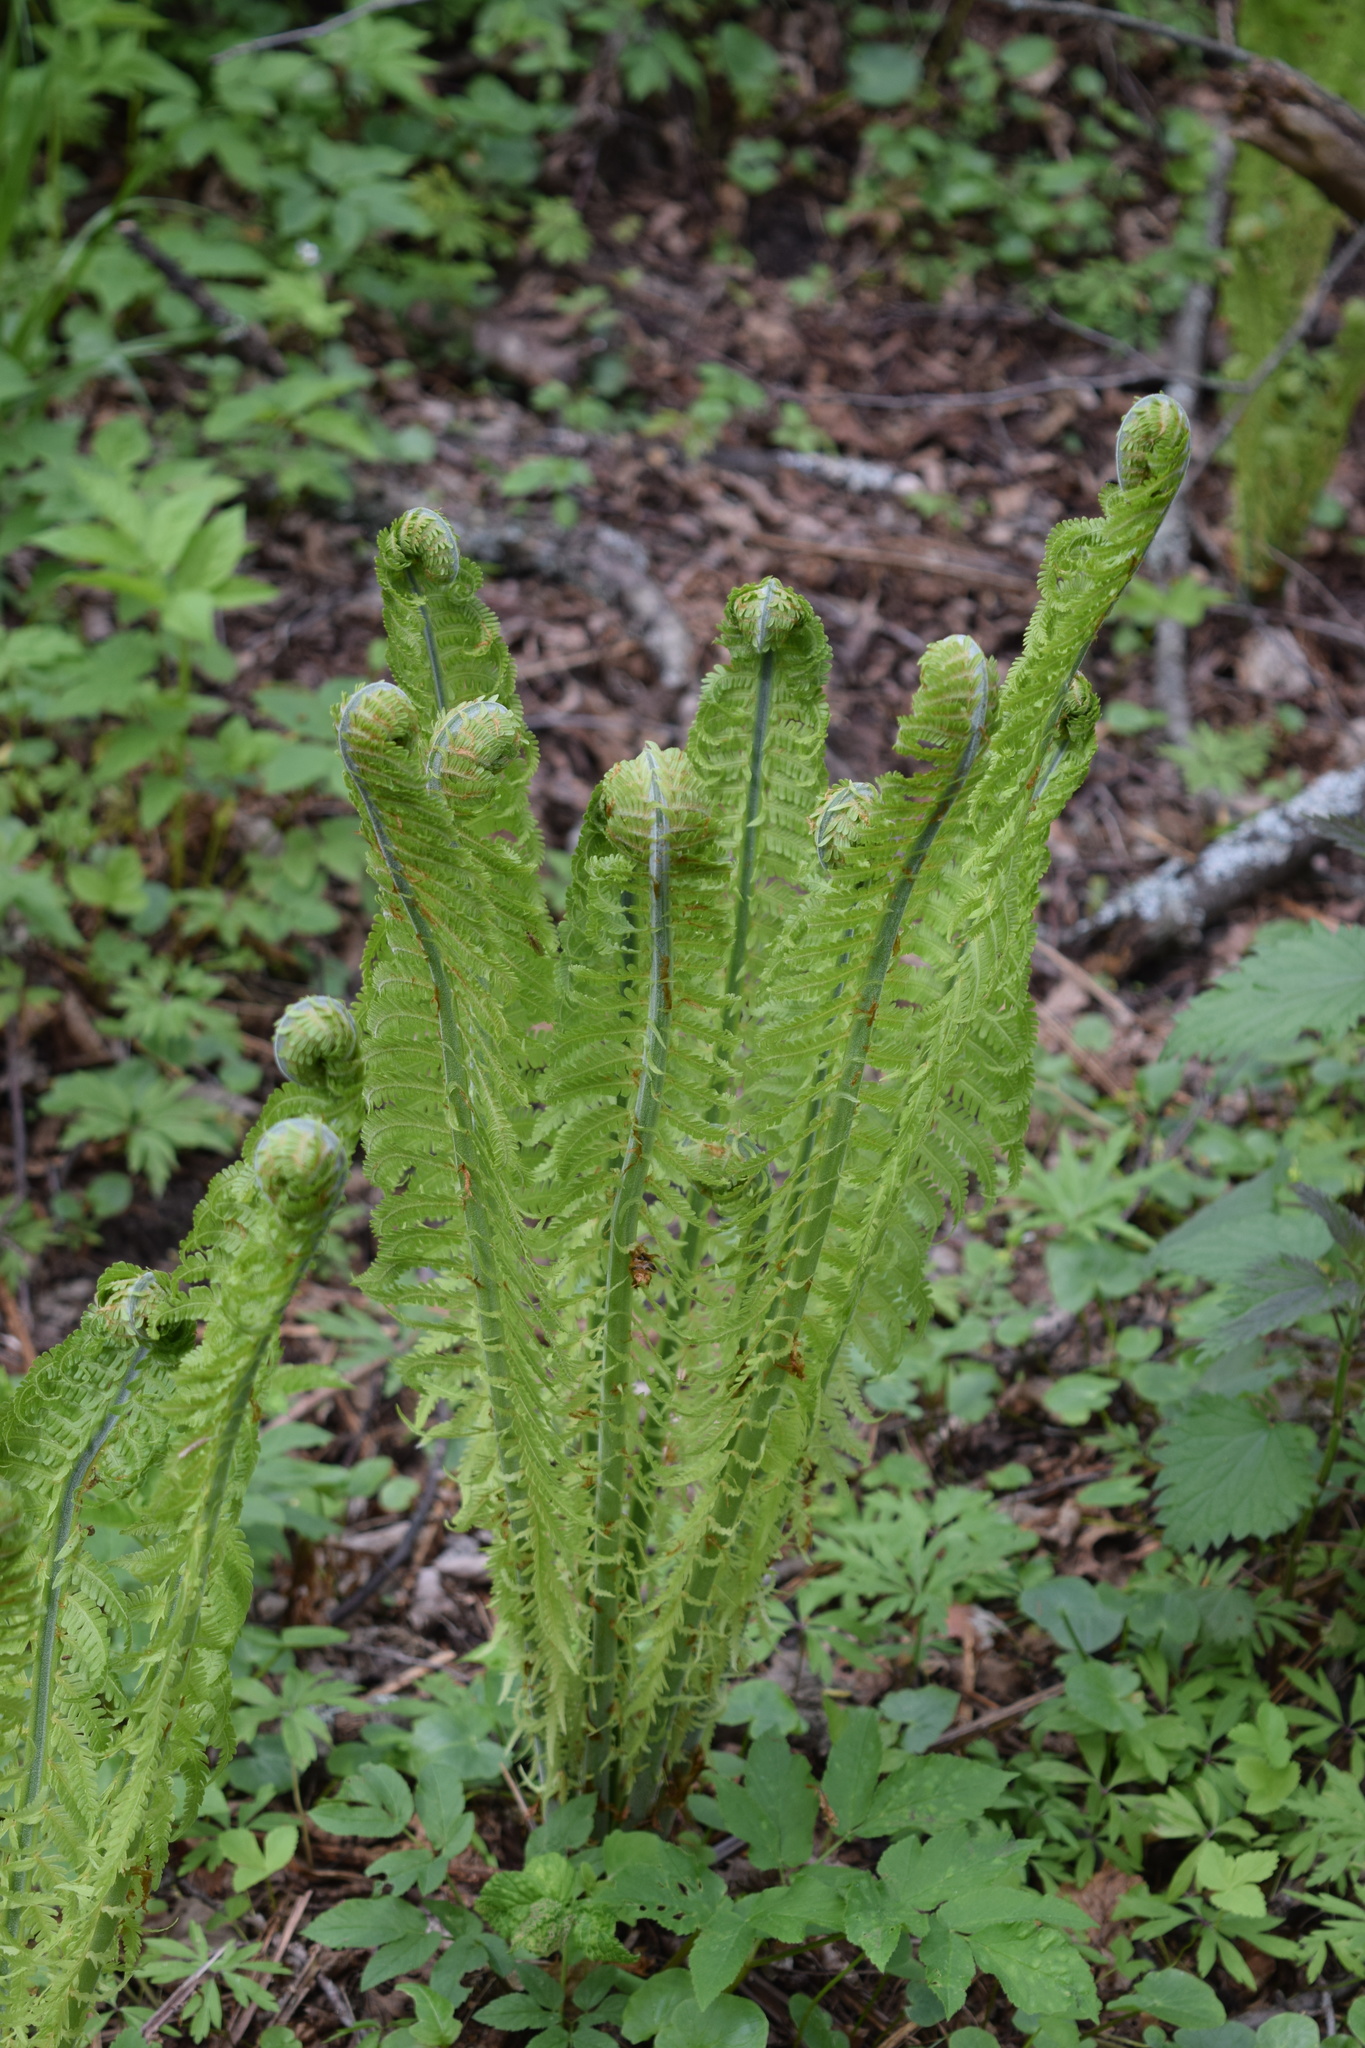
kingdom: Plantae
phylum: Tracheophyta
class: Polypodiopsida
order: Polypodiales
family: Onocleaceae
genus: Matteuccia
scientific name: Matteuccia struthiopteris
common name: Ostrich fern
